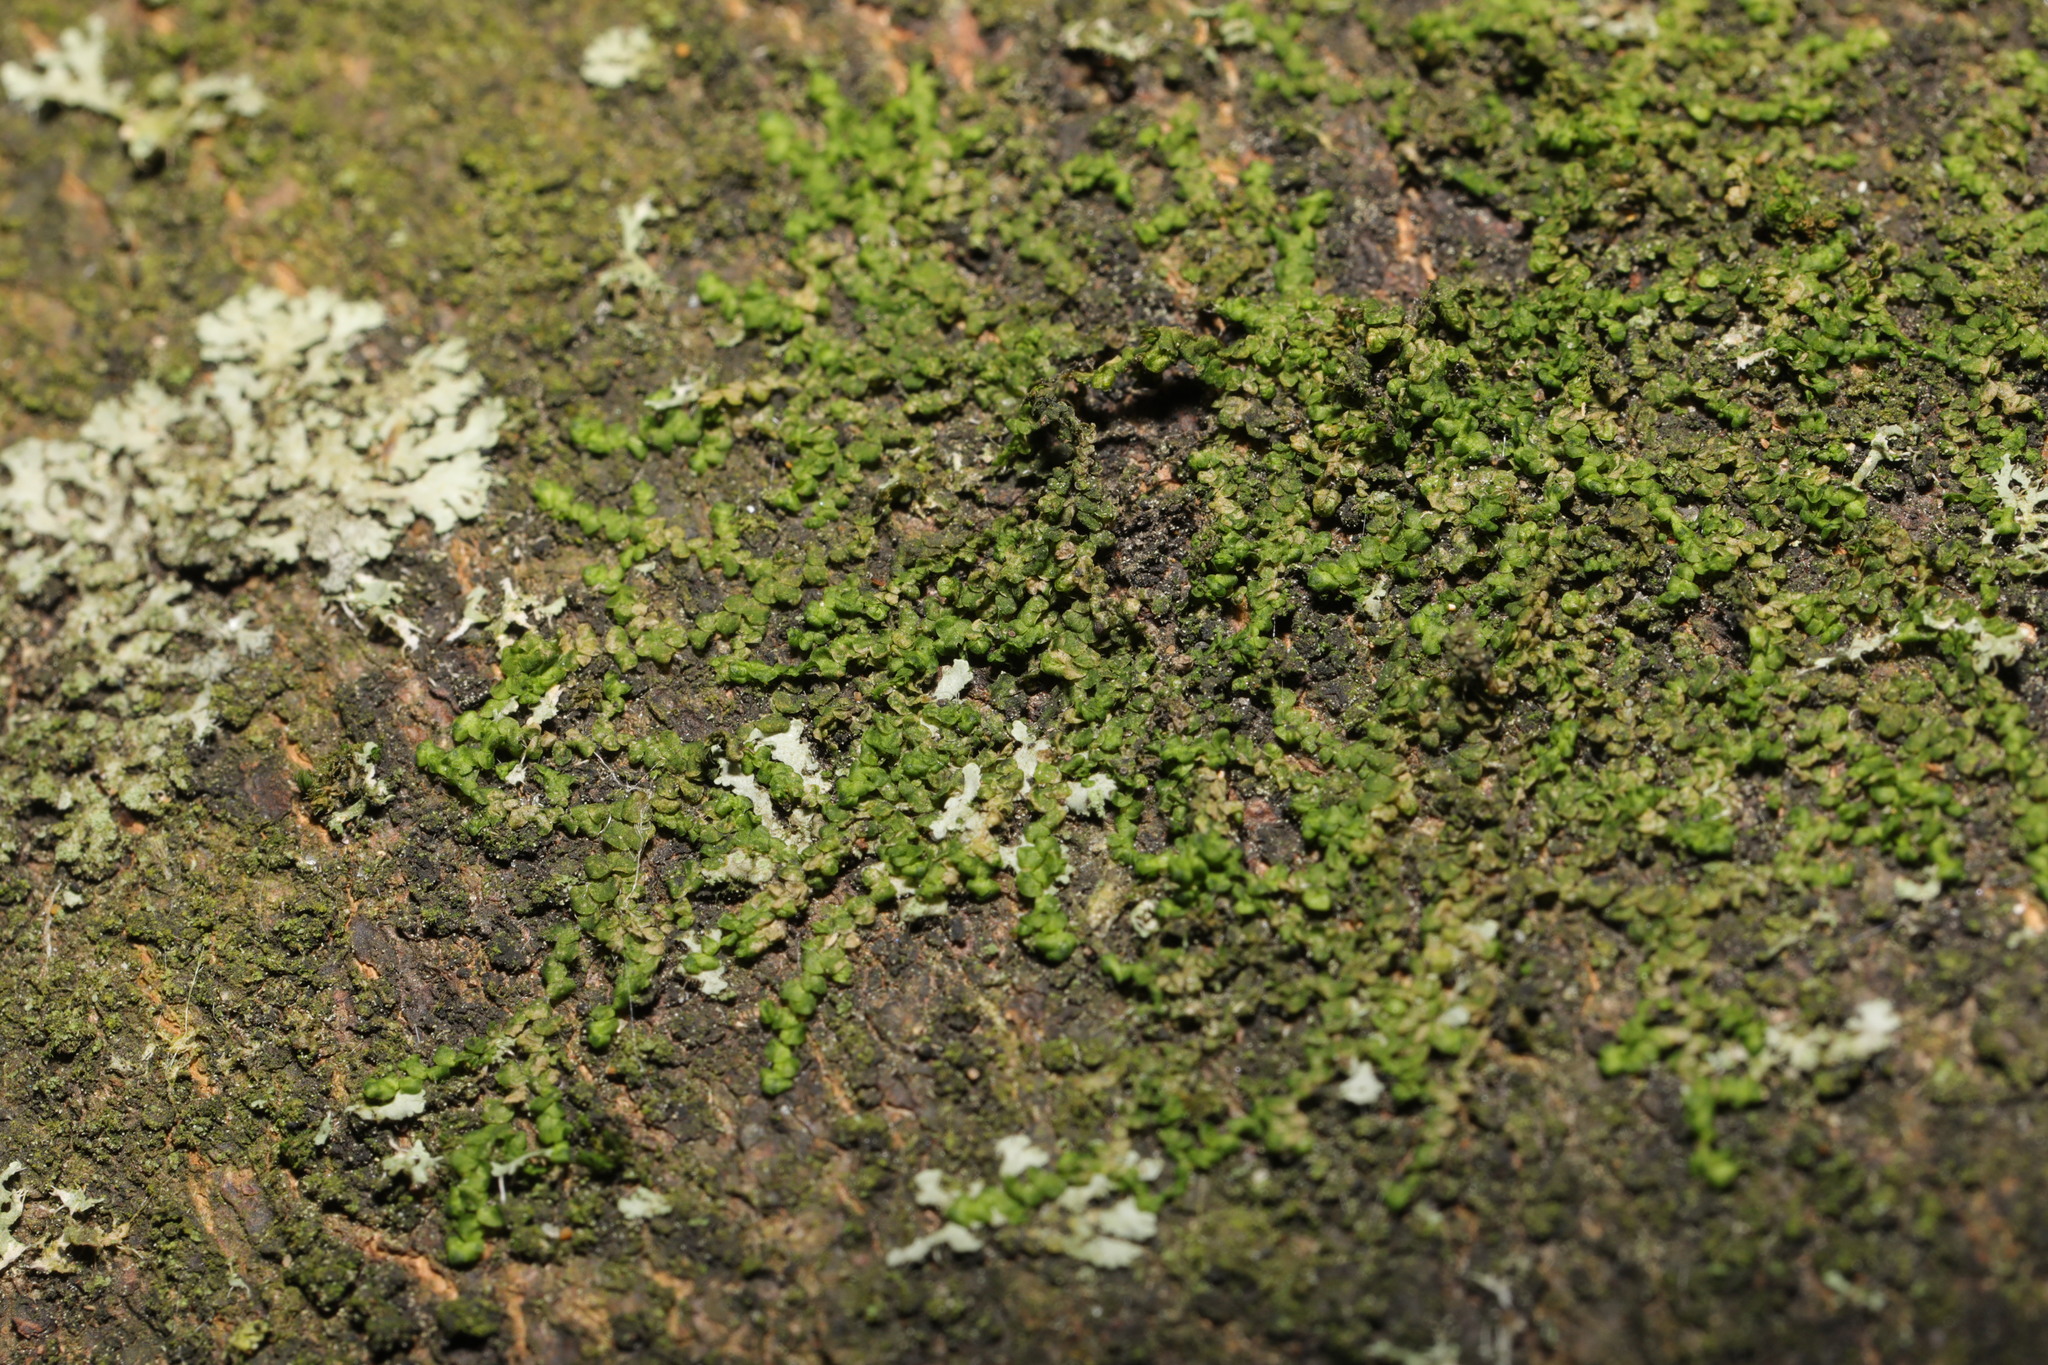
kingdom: Plantae
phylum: Marchantiophyta
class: Jungermanniopsida
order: Porellales
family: Frullaniaceae
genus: Frullania
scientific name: Frullania dilatata
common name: Dilated scalewort
